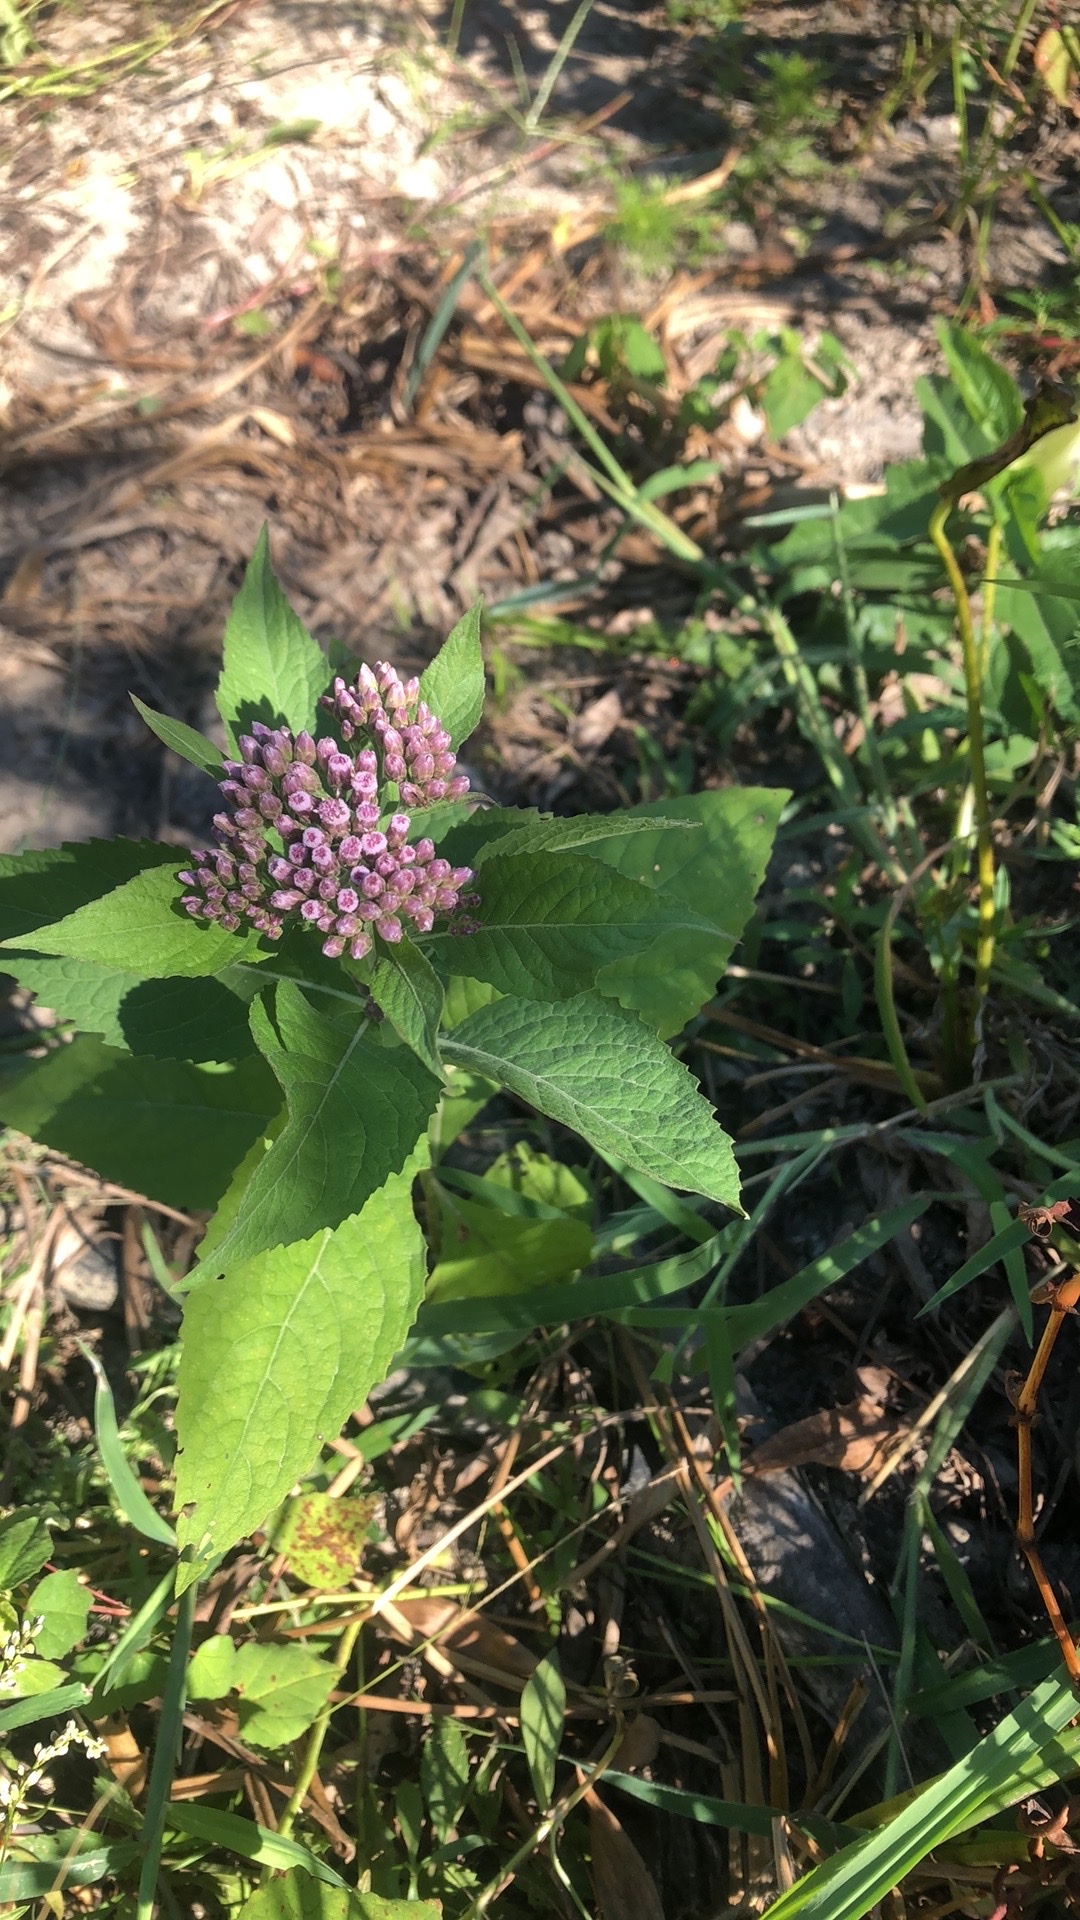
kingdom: Plantae
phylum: Tracheophyta
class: Magnoliopsida
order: Asterales
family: Asteraceae
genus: Pluchea
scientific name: Pluchea camphorata
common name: Camphor pluchea
